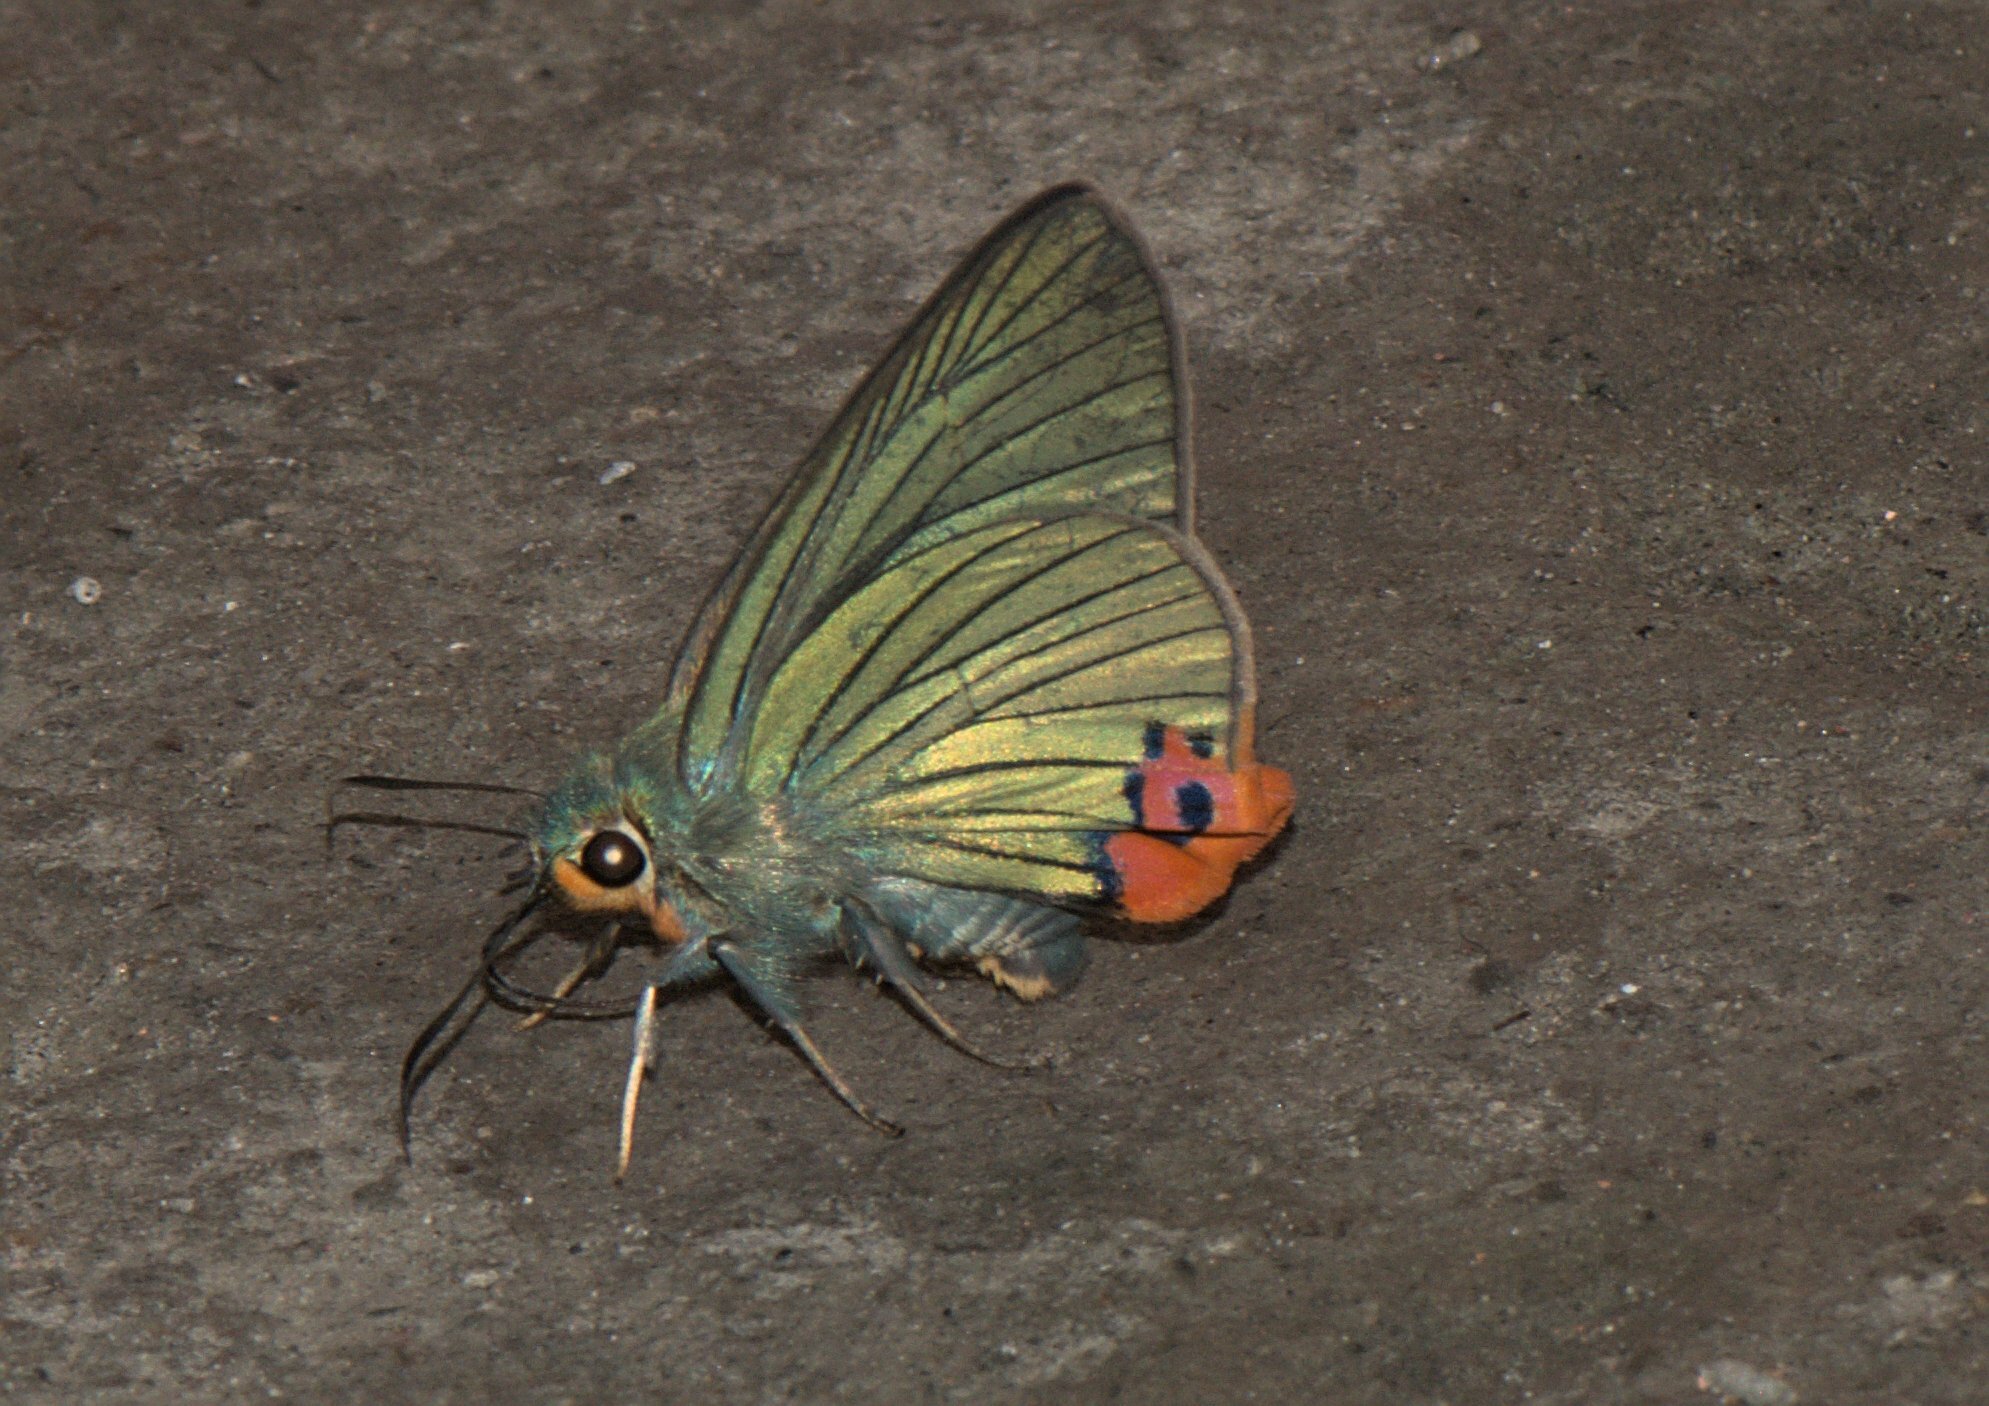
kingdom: Animalia
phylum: Arthropoda
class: Insecta
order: Lepidoptera
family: Hesperiidae
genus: Choaspes
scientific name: Choaspes benjaminii
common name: Indian awlking
